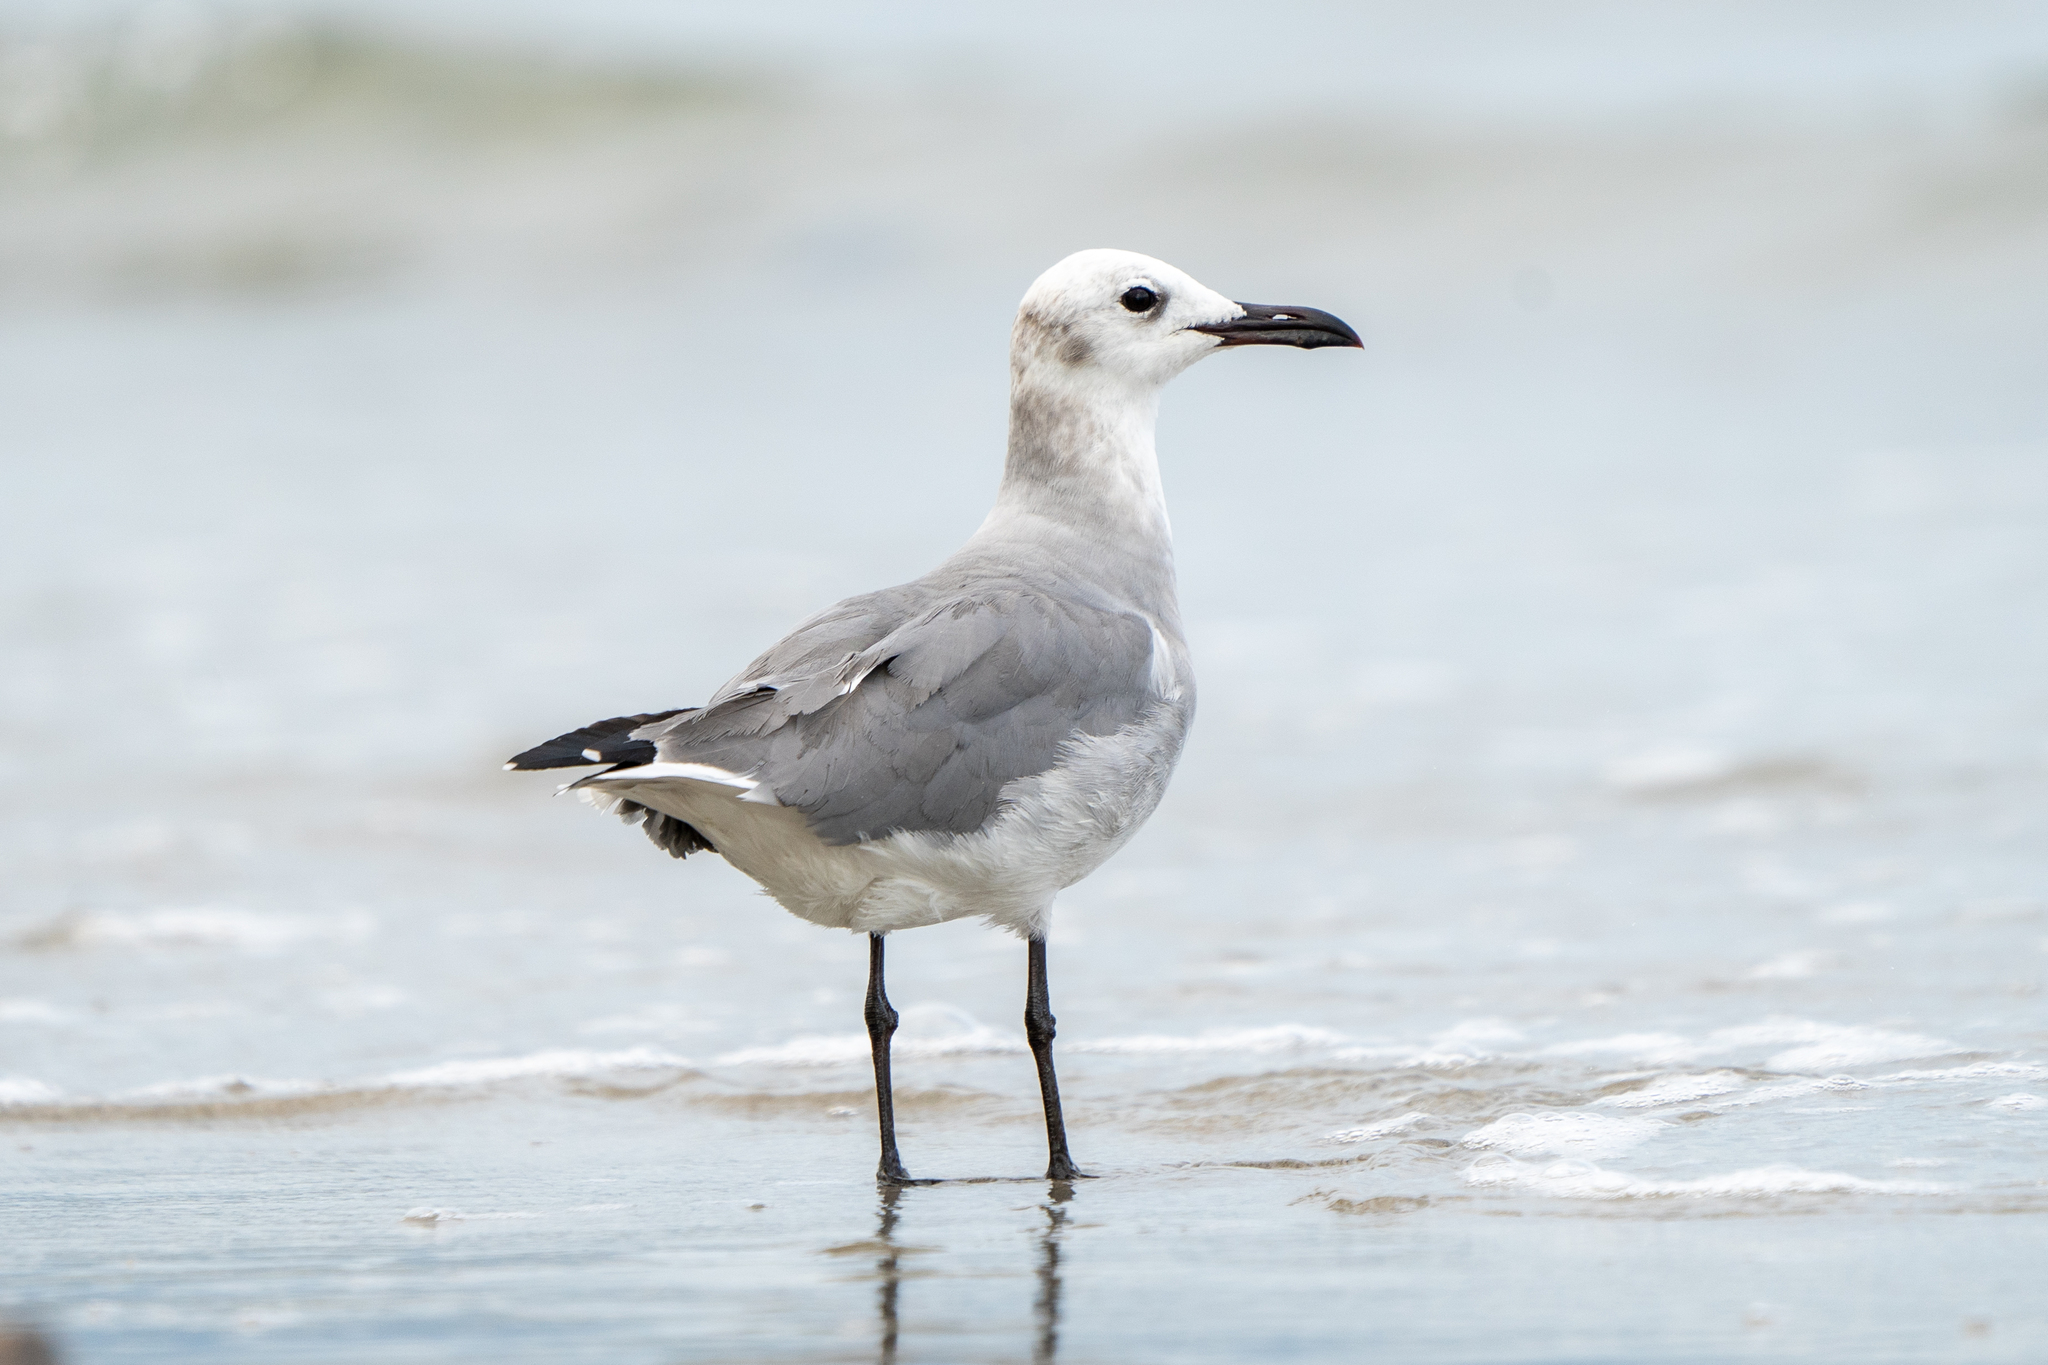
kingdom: Animalia
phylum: Chordata
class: Aves
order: Charadriiformes
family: Laridae
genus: Leucophaeus
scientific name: Leucophaeus atricilla
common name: Laughing gull
